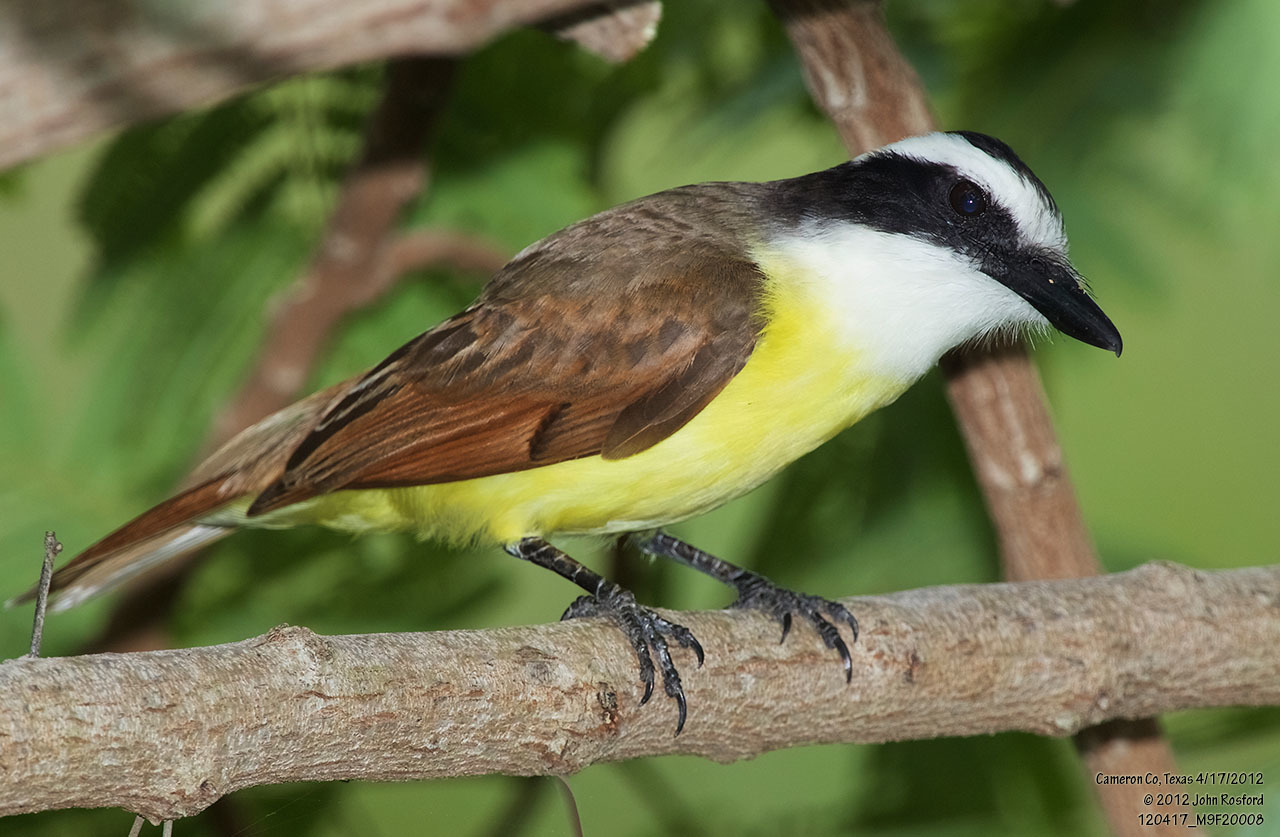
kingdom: Animalia
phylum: Chordata
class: Aves
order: Passeriformes
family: Tyrannidae
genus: Pitangus
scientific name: Pitangus sulphuratus
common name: Great kiskadee
